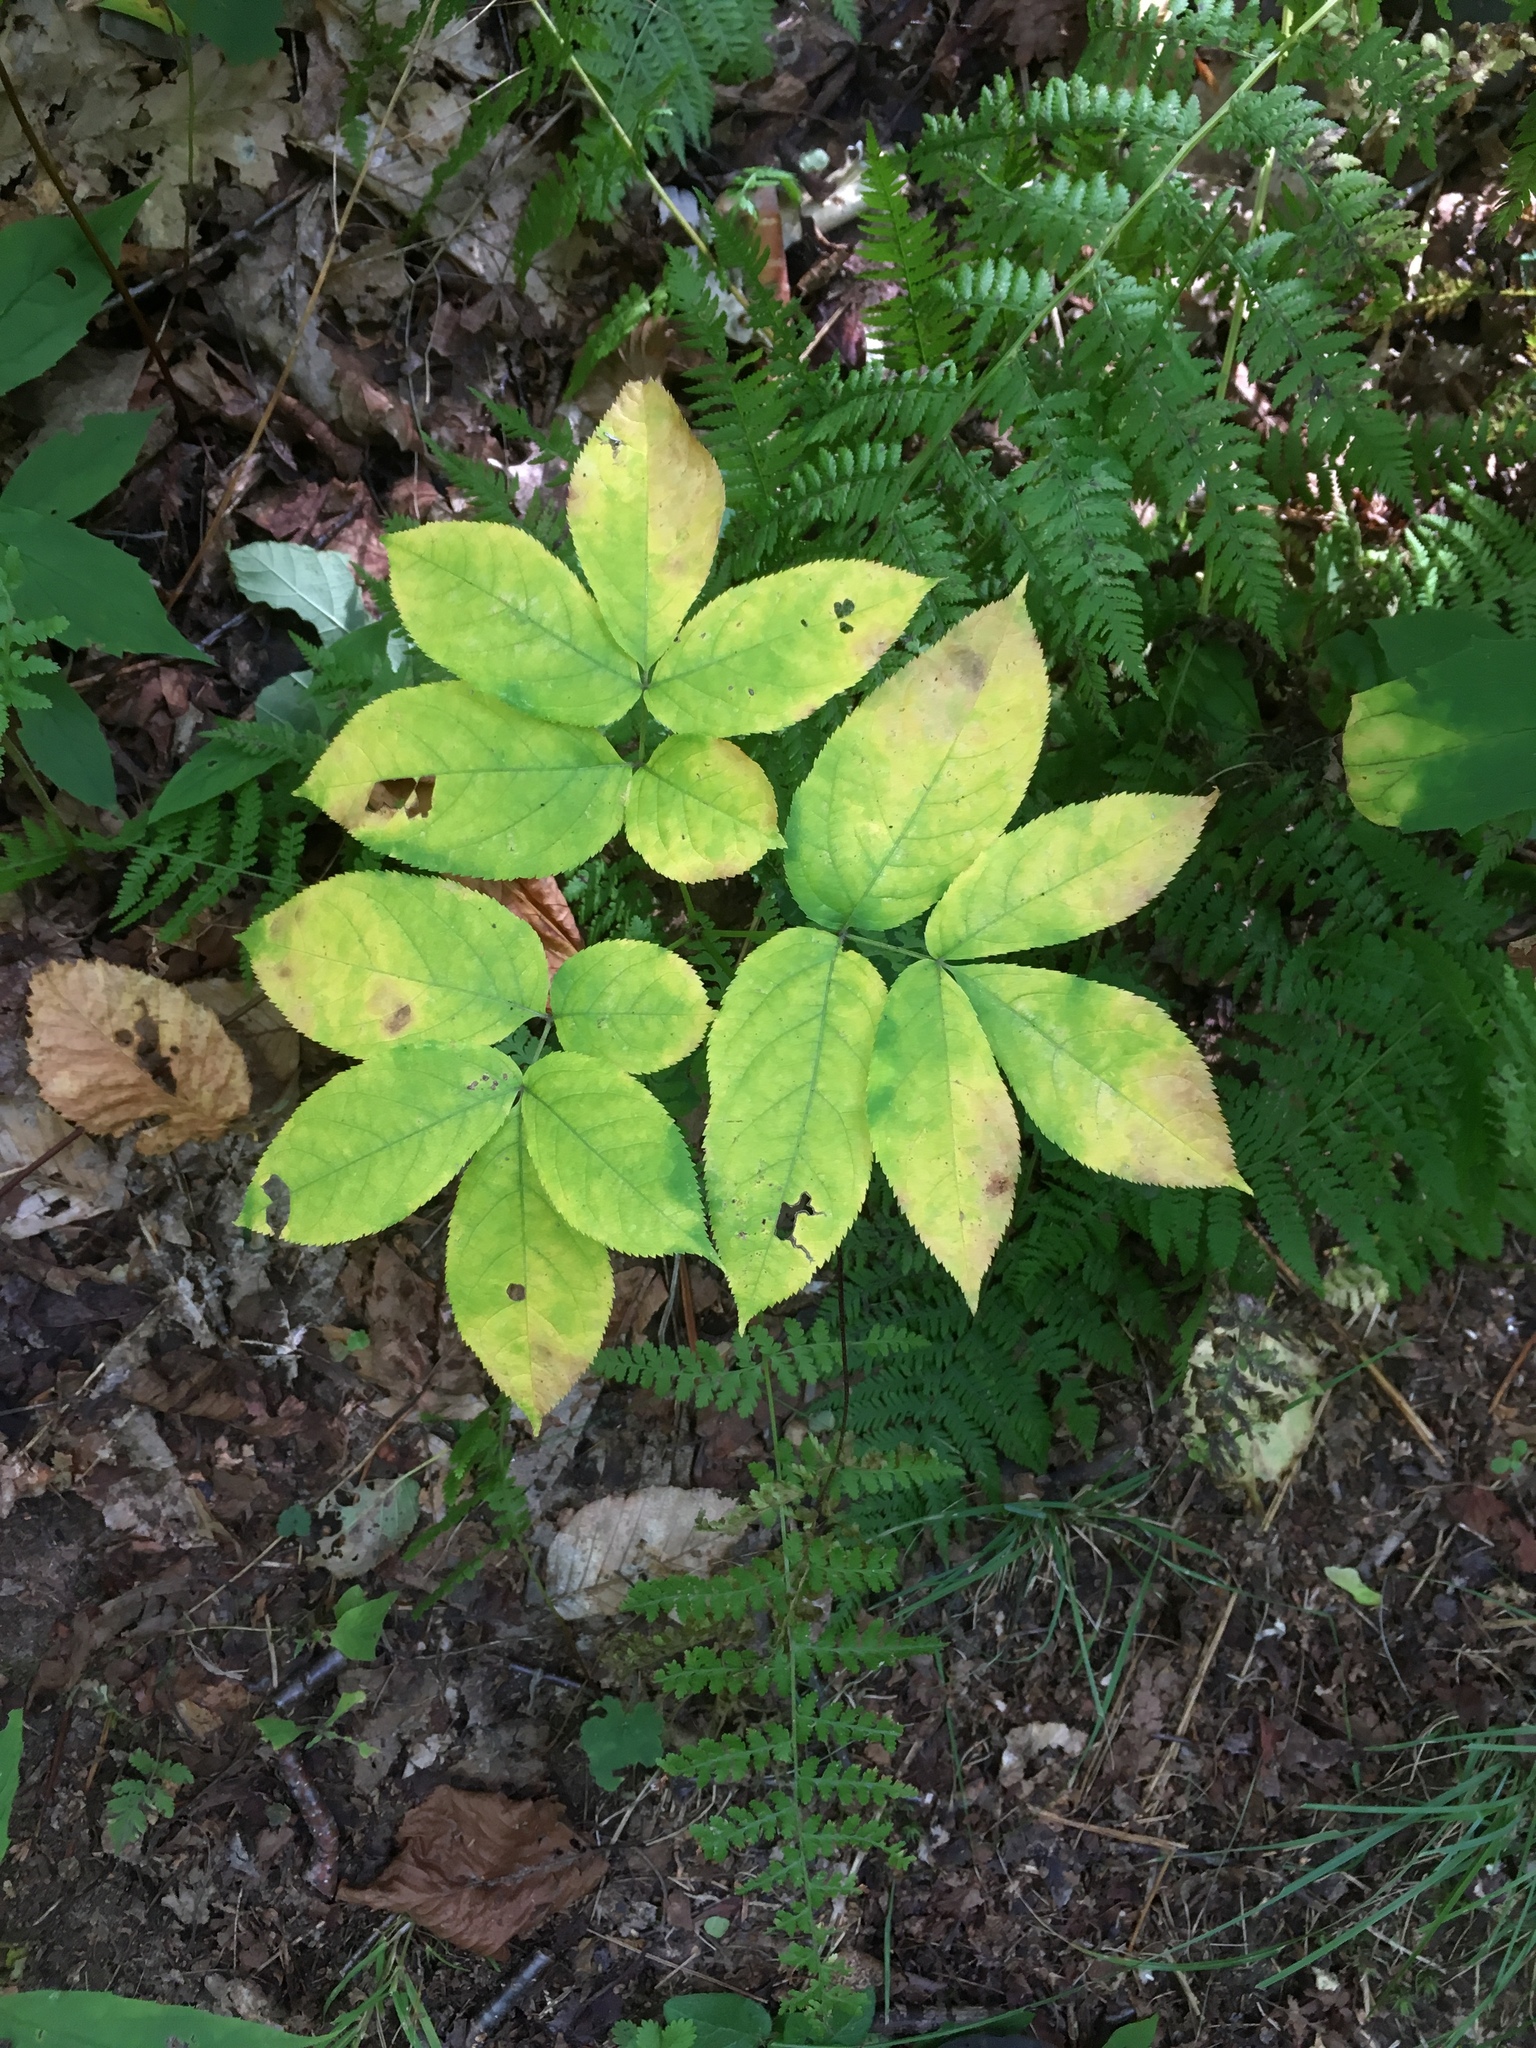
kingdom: Plantae
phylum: Tracheophyta
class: Magnoliopsida
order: Apiales
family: Araliaceae
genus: Aralia
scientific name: Aralia nudicaulis
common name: Wild sarsaparilla
